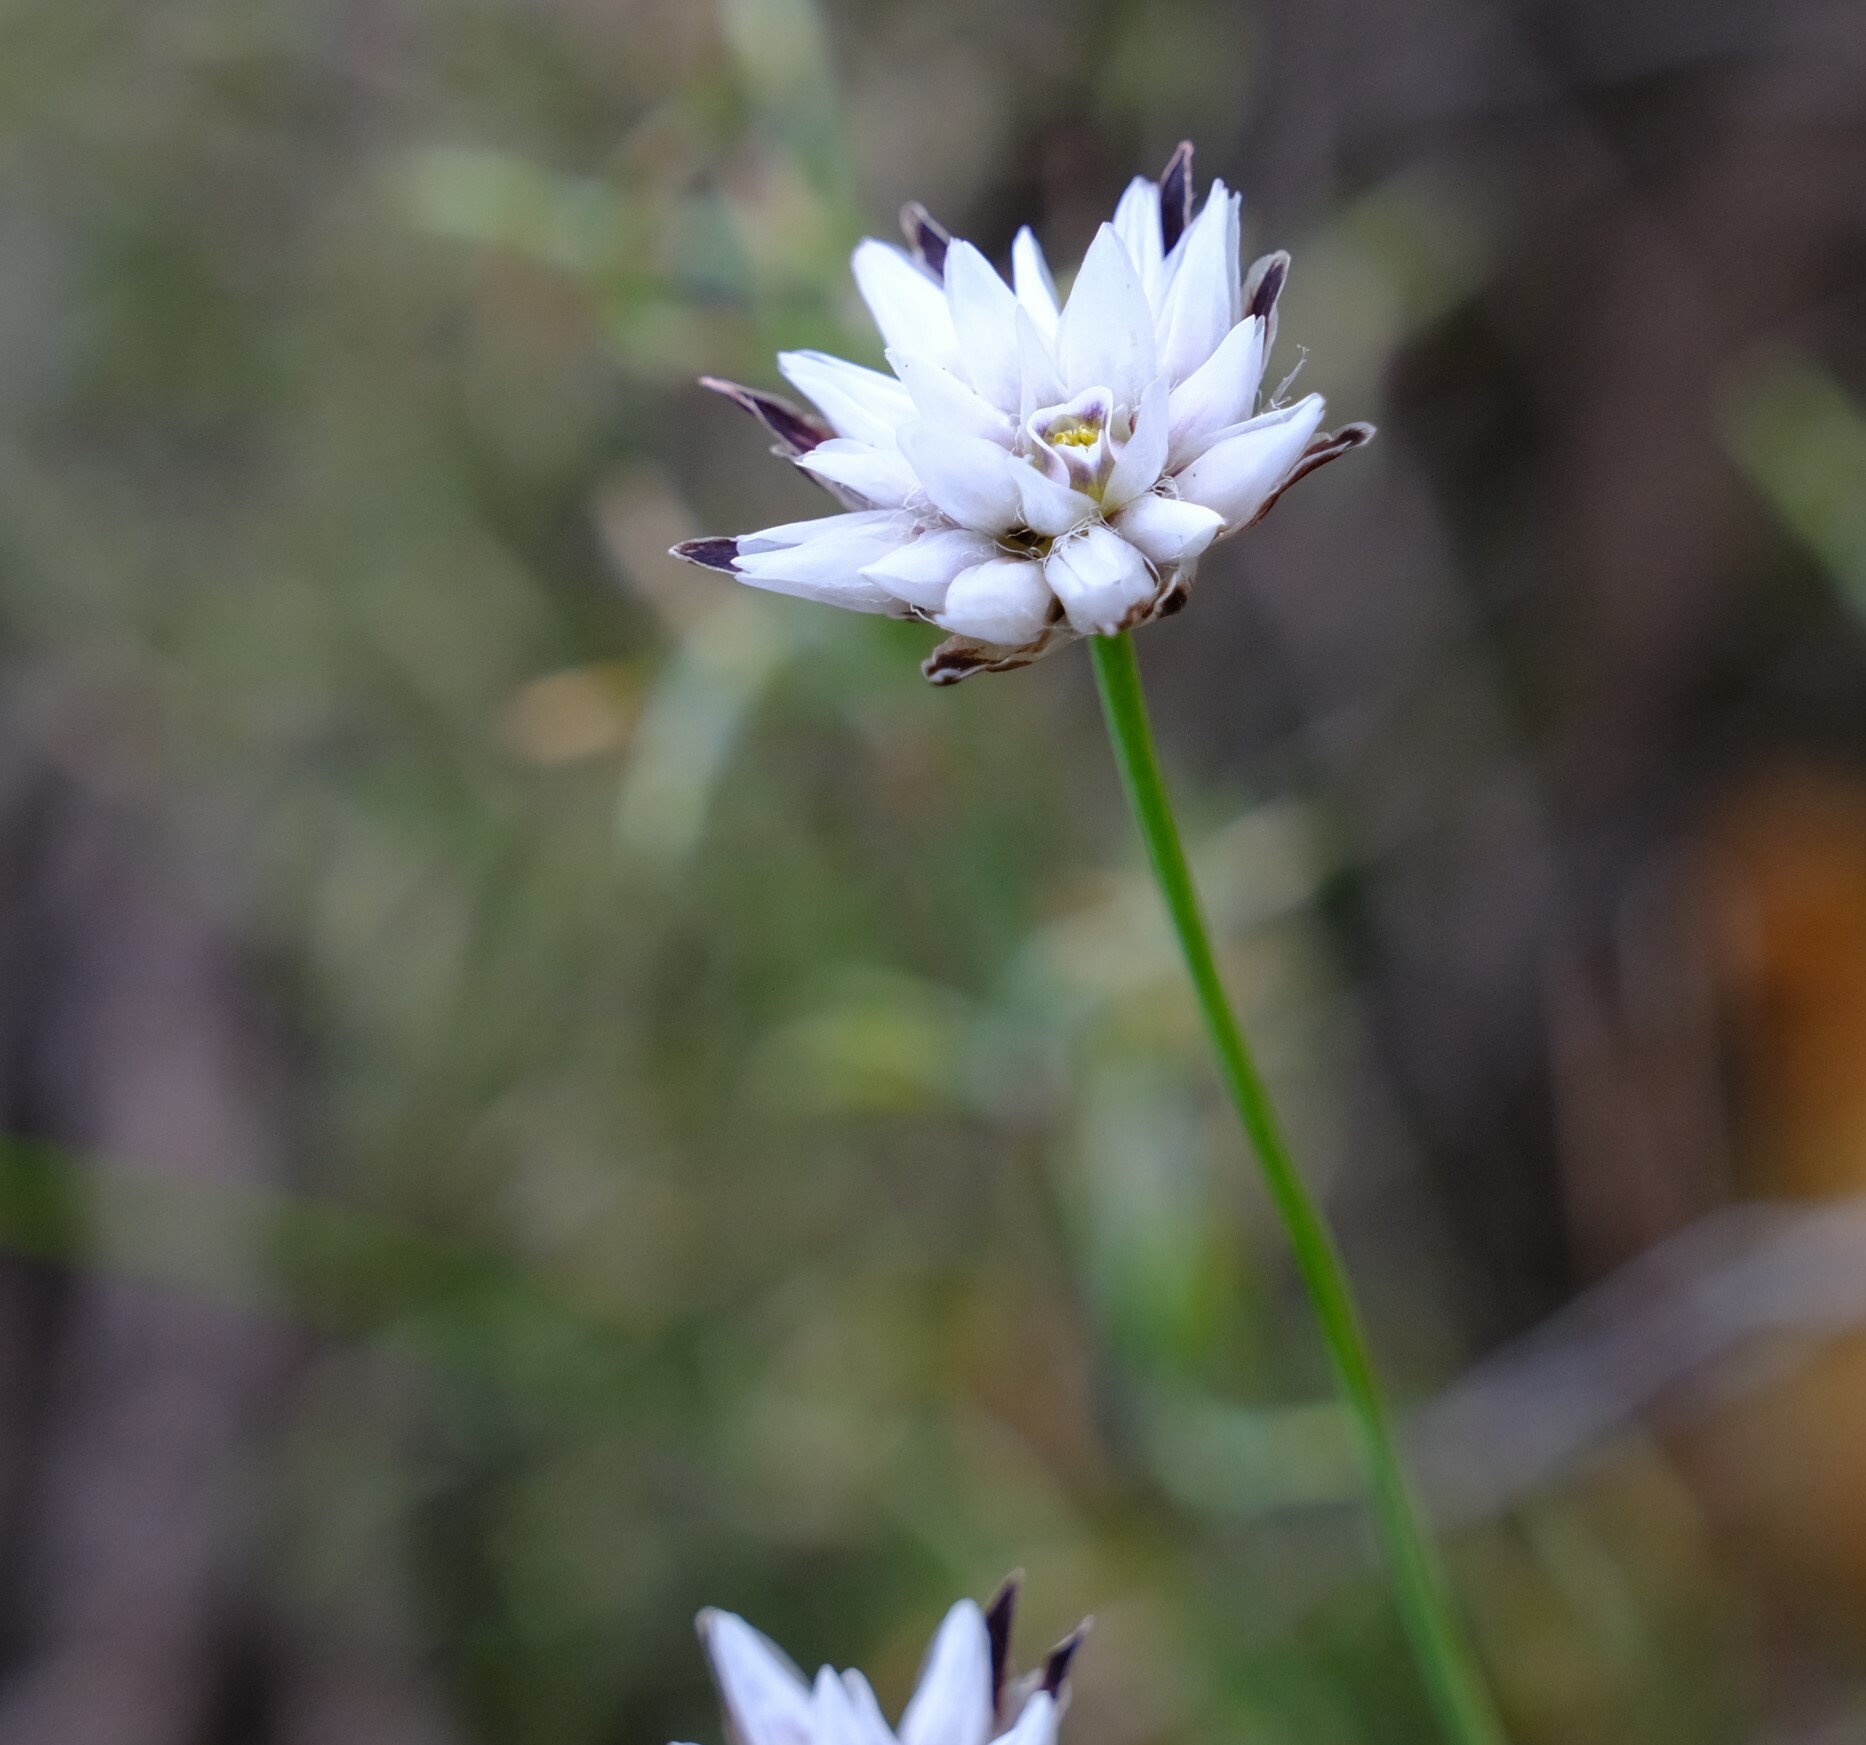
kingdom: Plantae
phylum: Tracheophyta
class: Liliopsida
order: Asparagales
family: Asparagaceae
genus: Laxmannia
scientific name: Laxmannia omnifertilis
